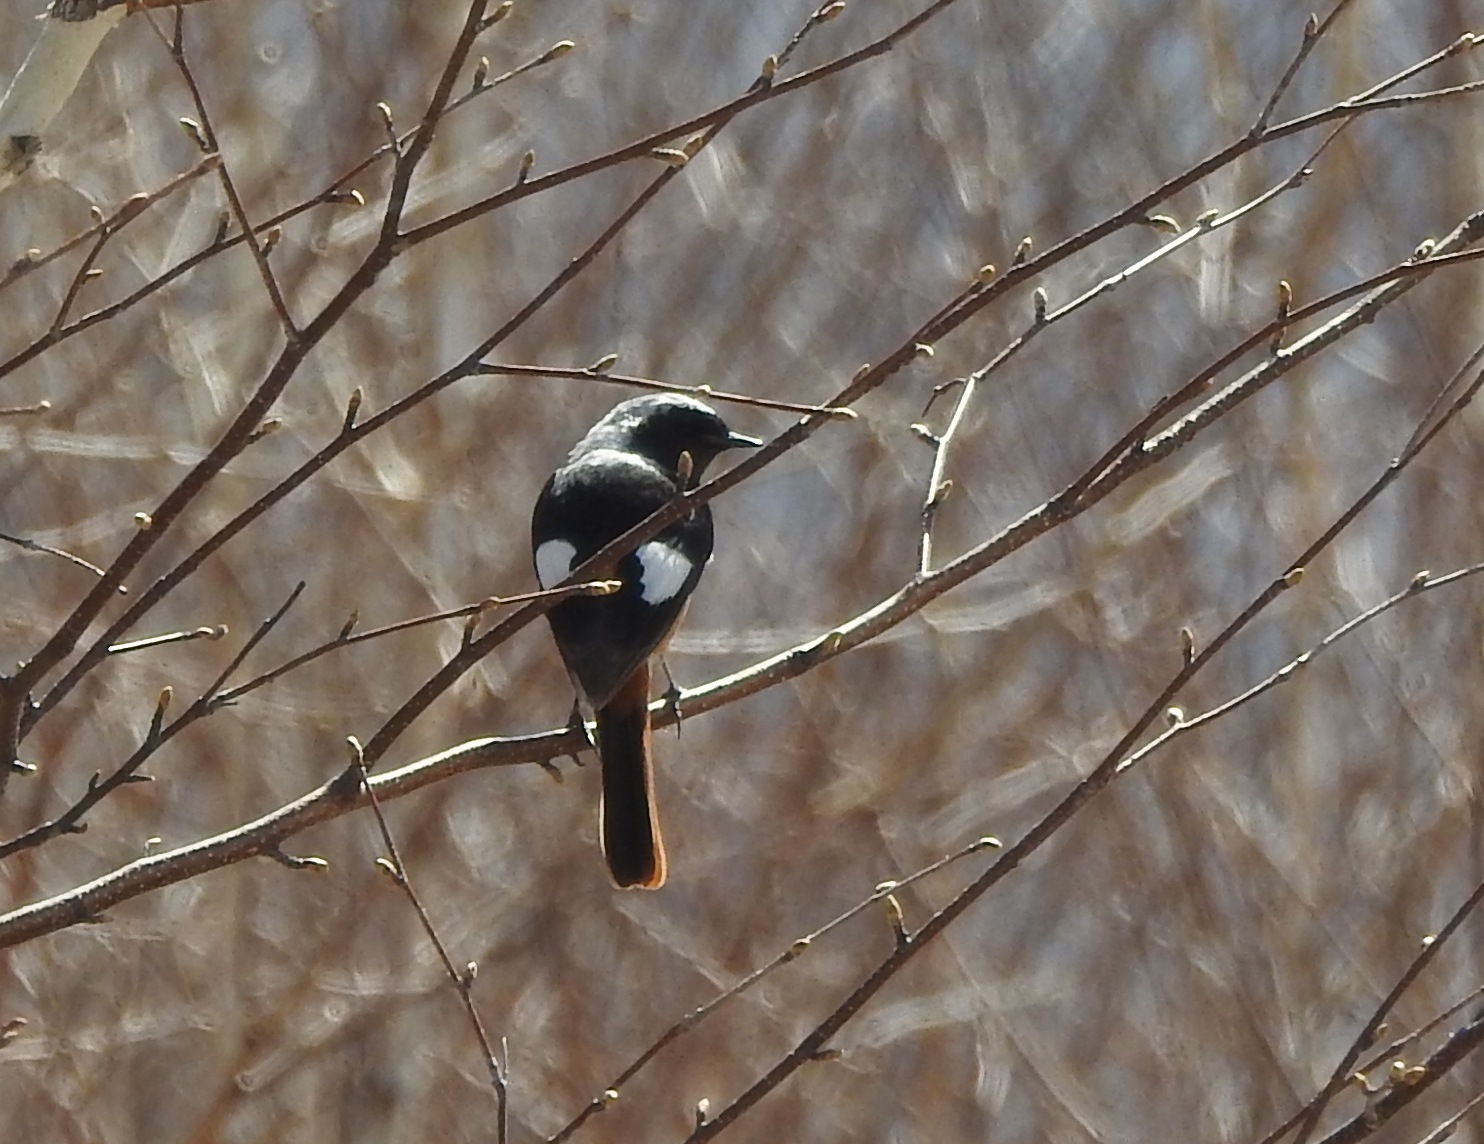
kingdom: Animalia
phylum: Chordata
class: Aves
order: Passeriformes
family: Muscicapidae
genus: Phoenicurus
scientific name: Phoenicurus auroreus
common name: Daurian redstart
